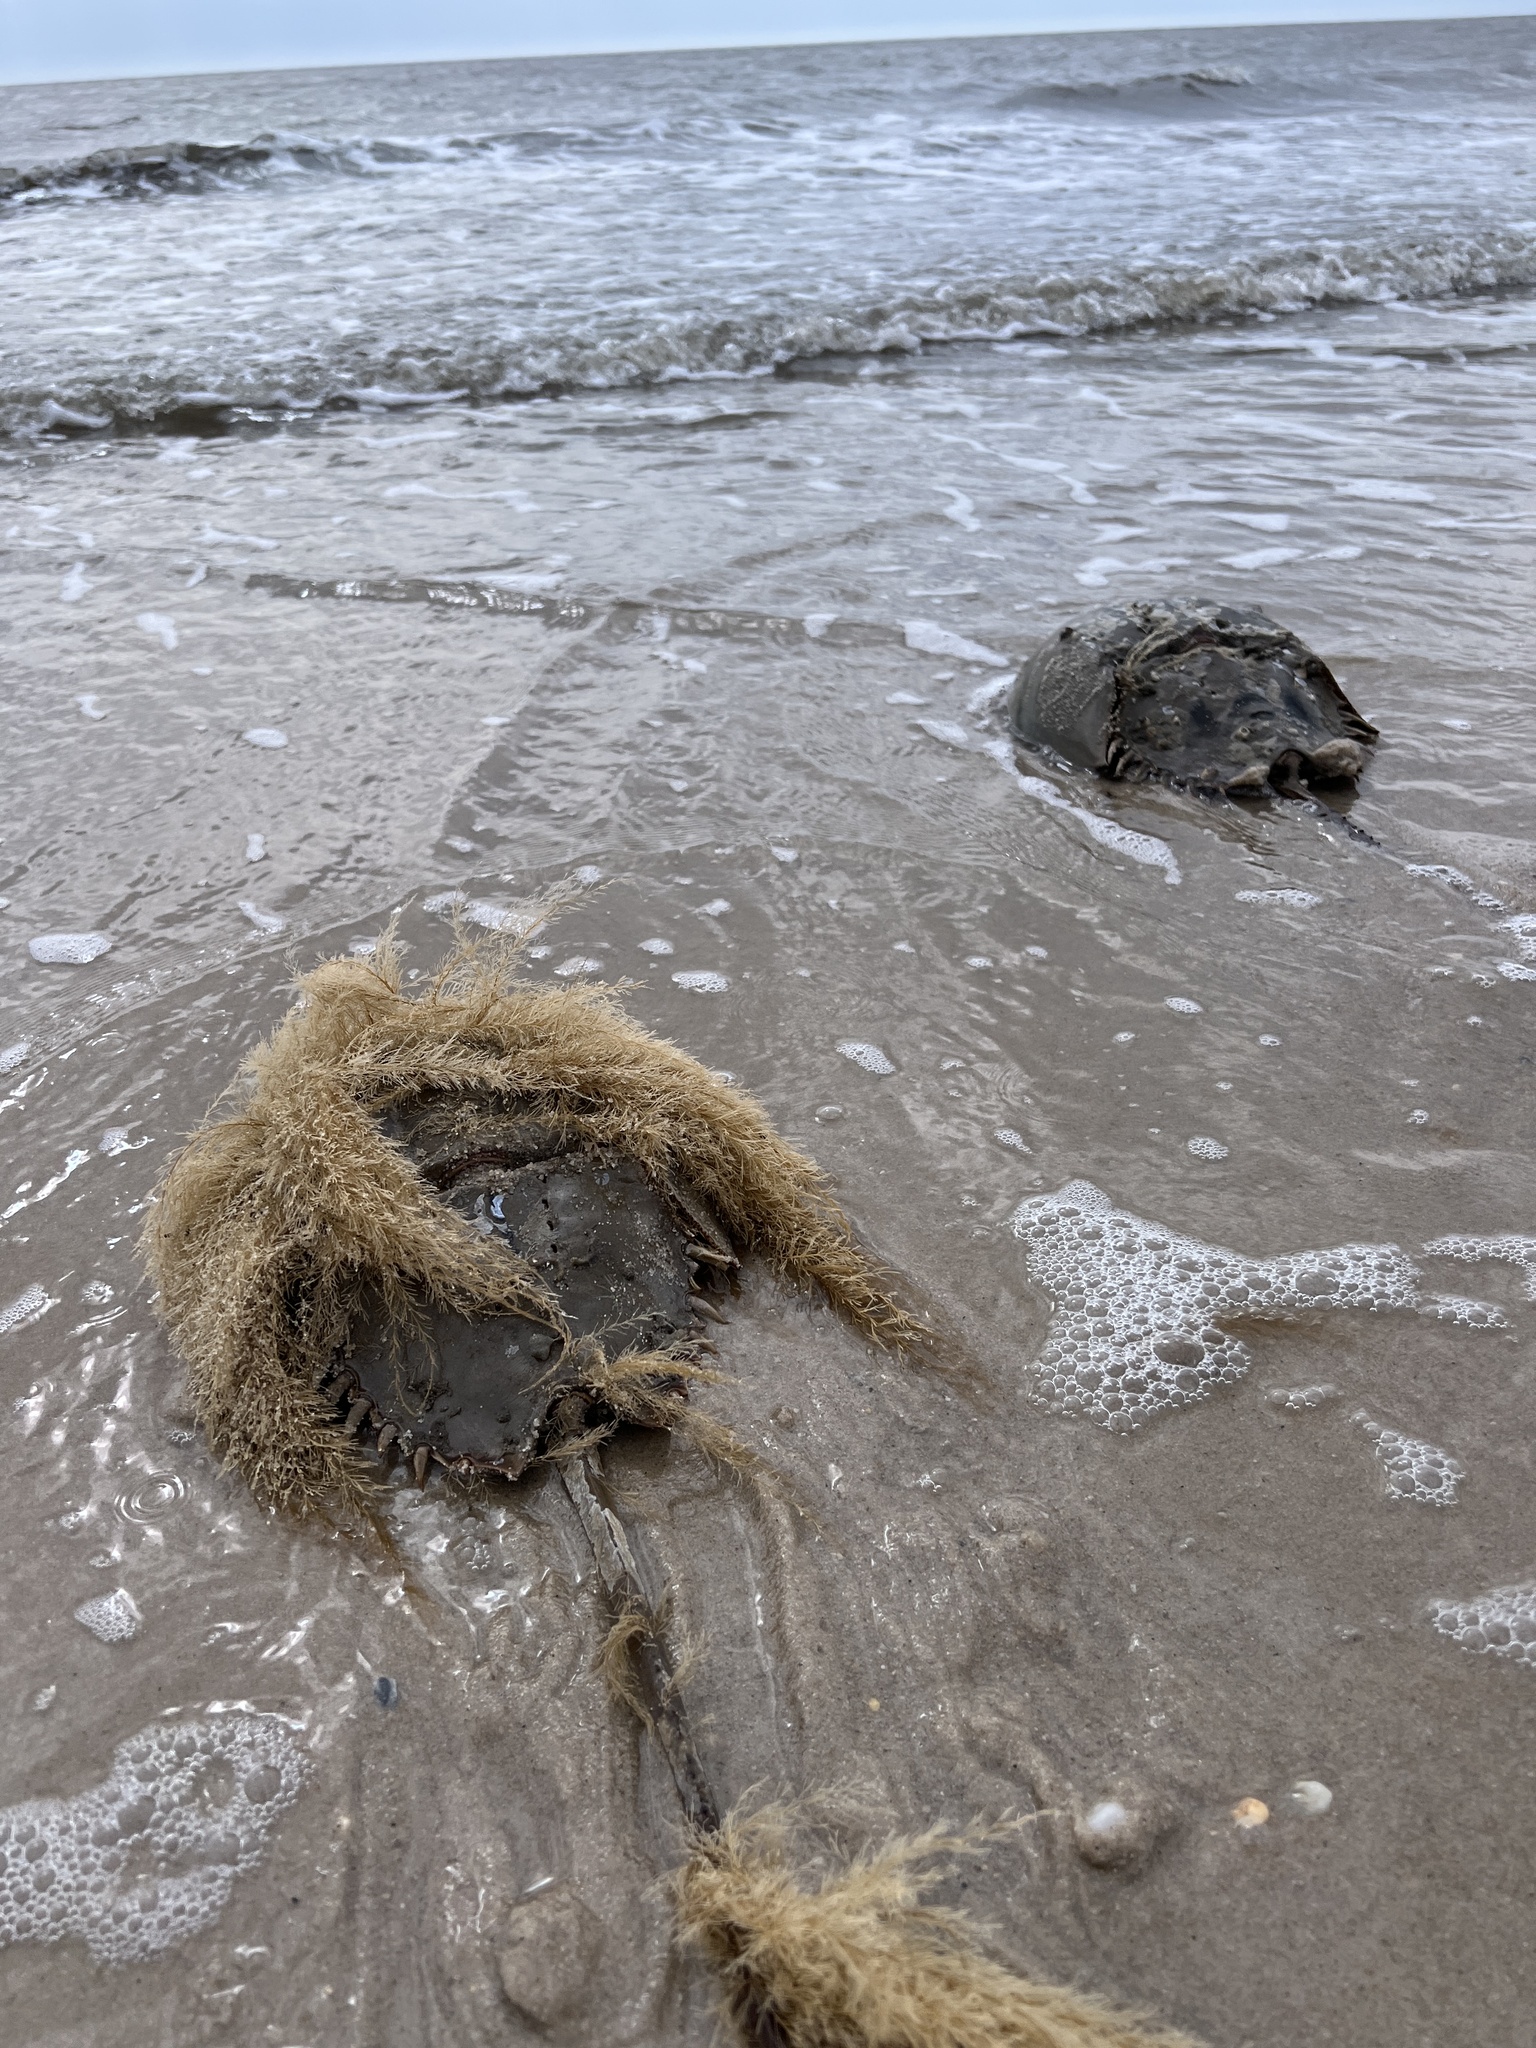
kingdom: Animalia
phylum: Arthropoda
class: Merostomata
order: Xiphosurida
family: Limulidae
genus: Limulus
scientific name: Limulus polyphemus
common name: Horseshoe crab
